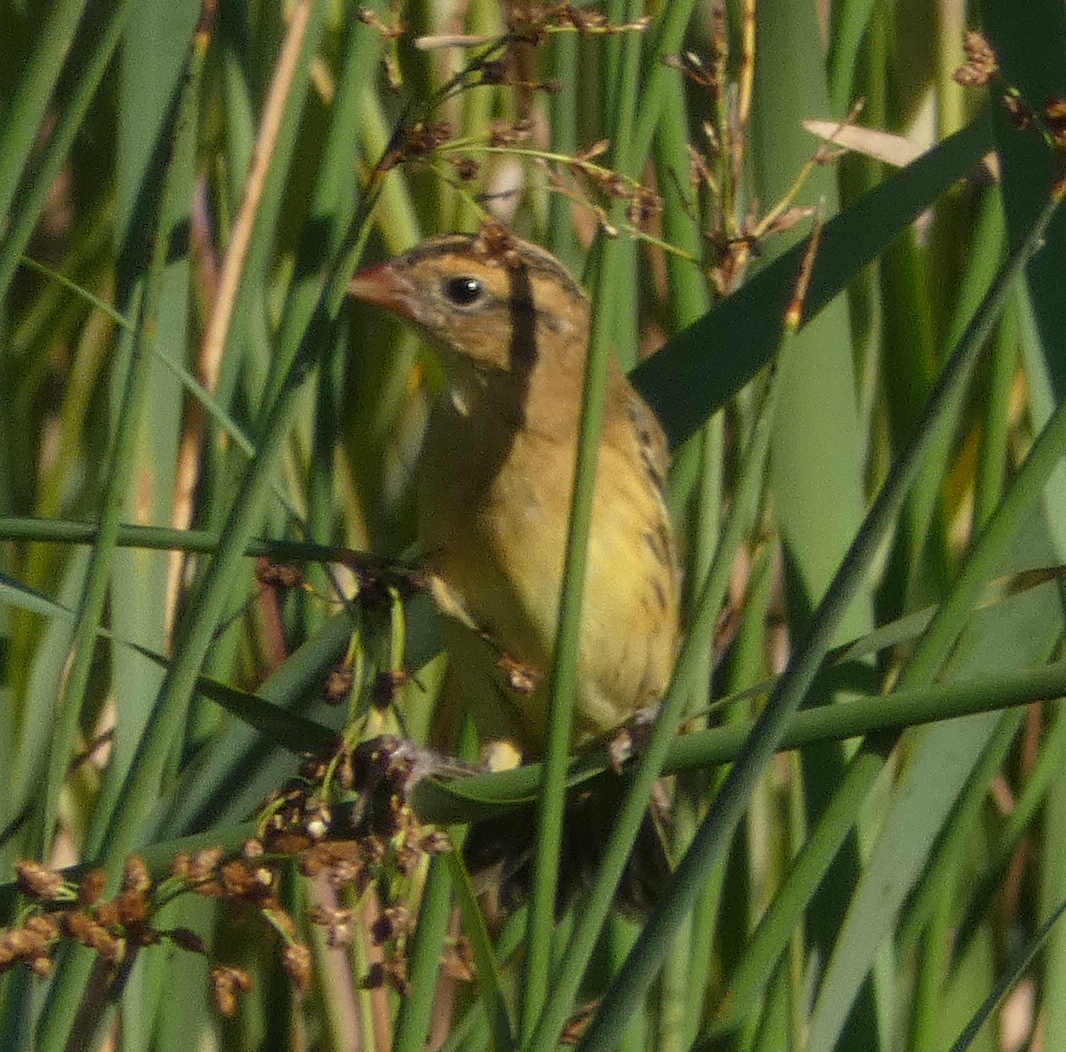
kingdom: Animalia
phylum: Chordata
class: Aves
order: Passeriformes
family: Icteridae
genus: Dolichonyx
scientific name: Dolichonyx oryzivorus
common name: Bobolink
